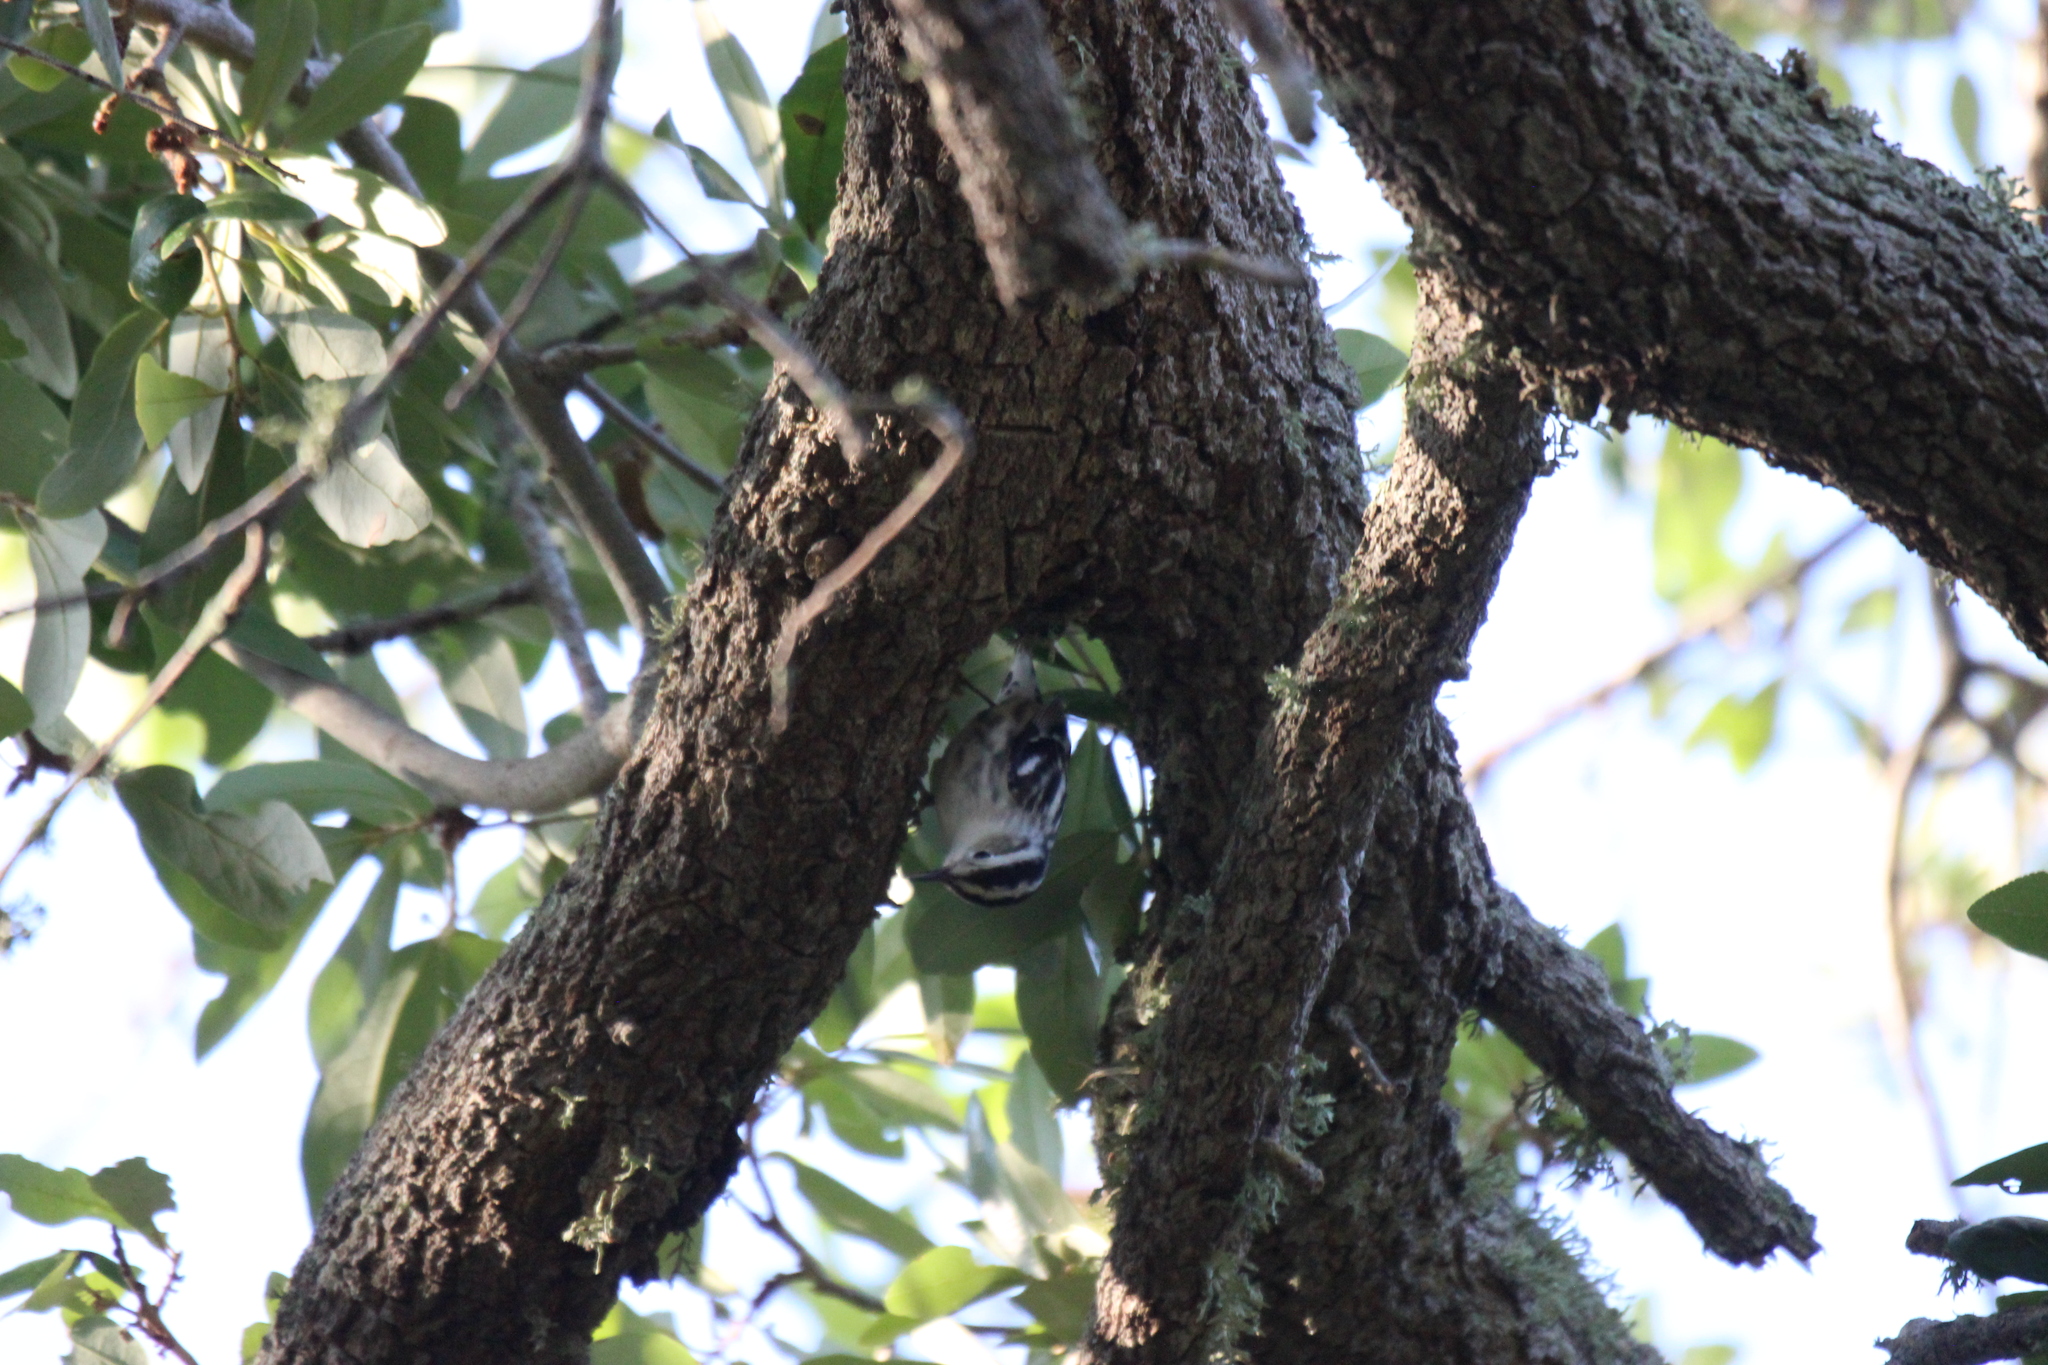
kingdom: Animalia
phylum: Chordata
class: Aves
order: Passeriformes
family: Parulidae
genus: Mniotilta
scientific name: Mniotilta varia
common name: Black-and-white warbler
